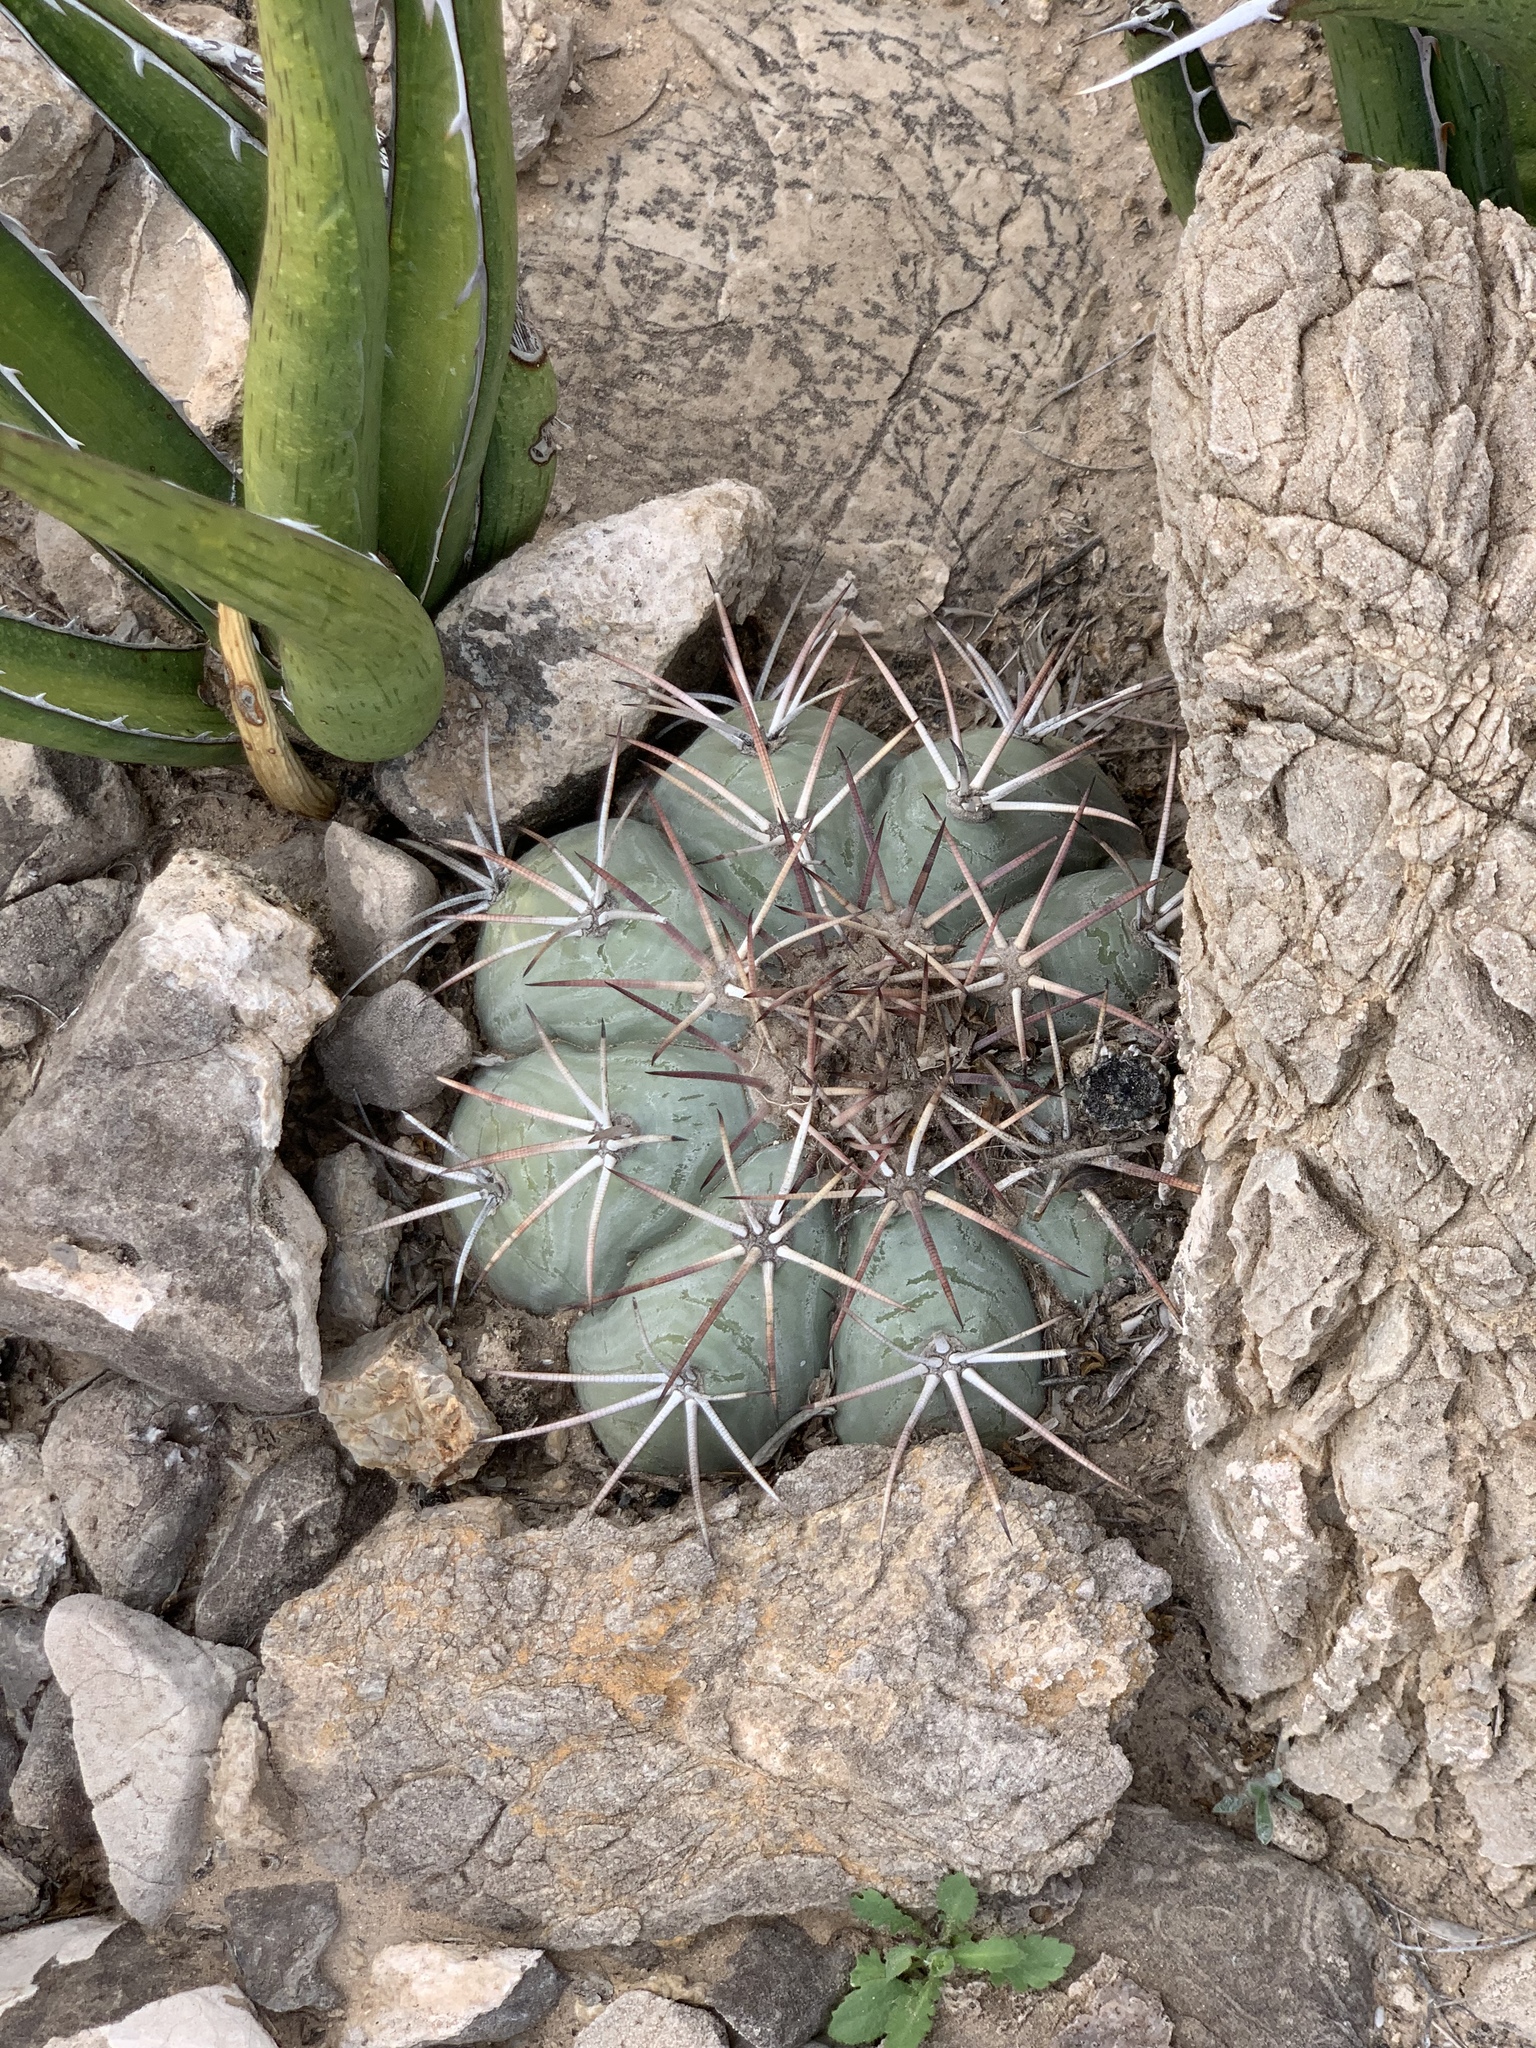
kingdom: Plantae
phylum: Tracheophyta
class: Magnoliopsida
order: Caryophyllales
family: Cactaceae
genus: Echinocactus
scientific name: Echinocactus horizonthalonius
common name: Devilshead
